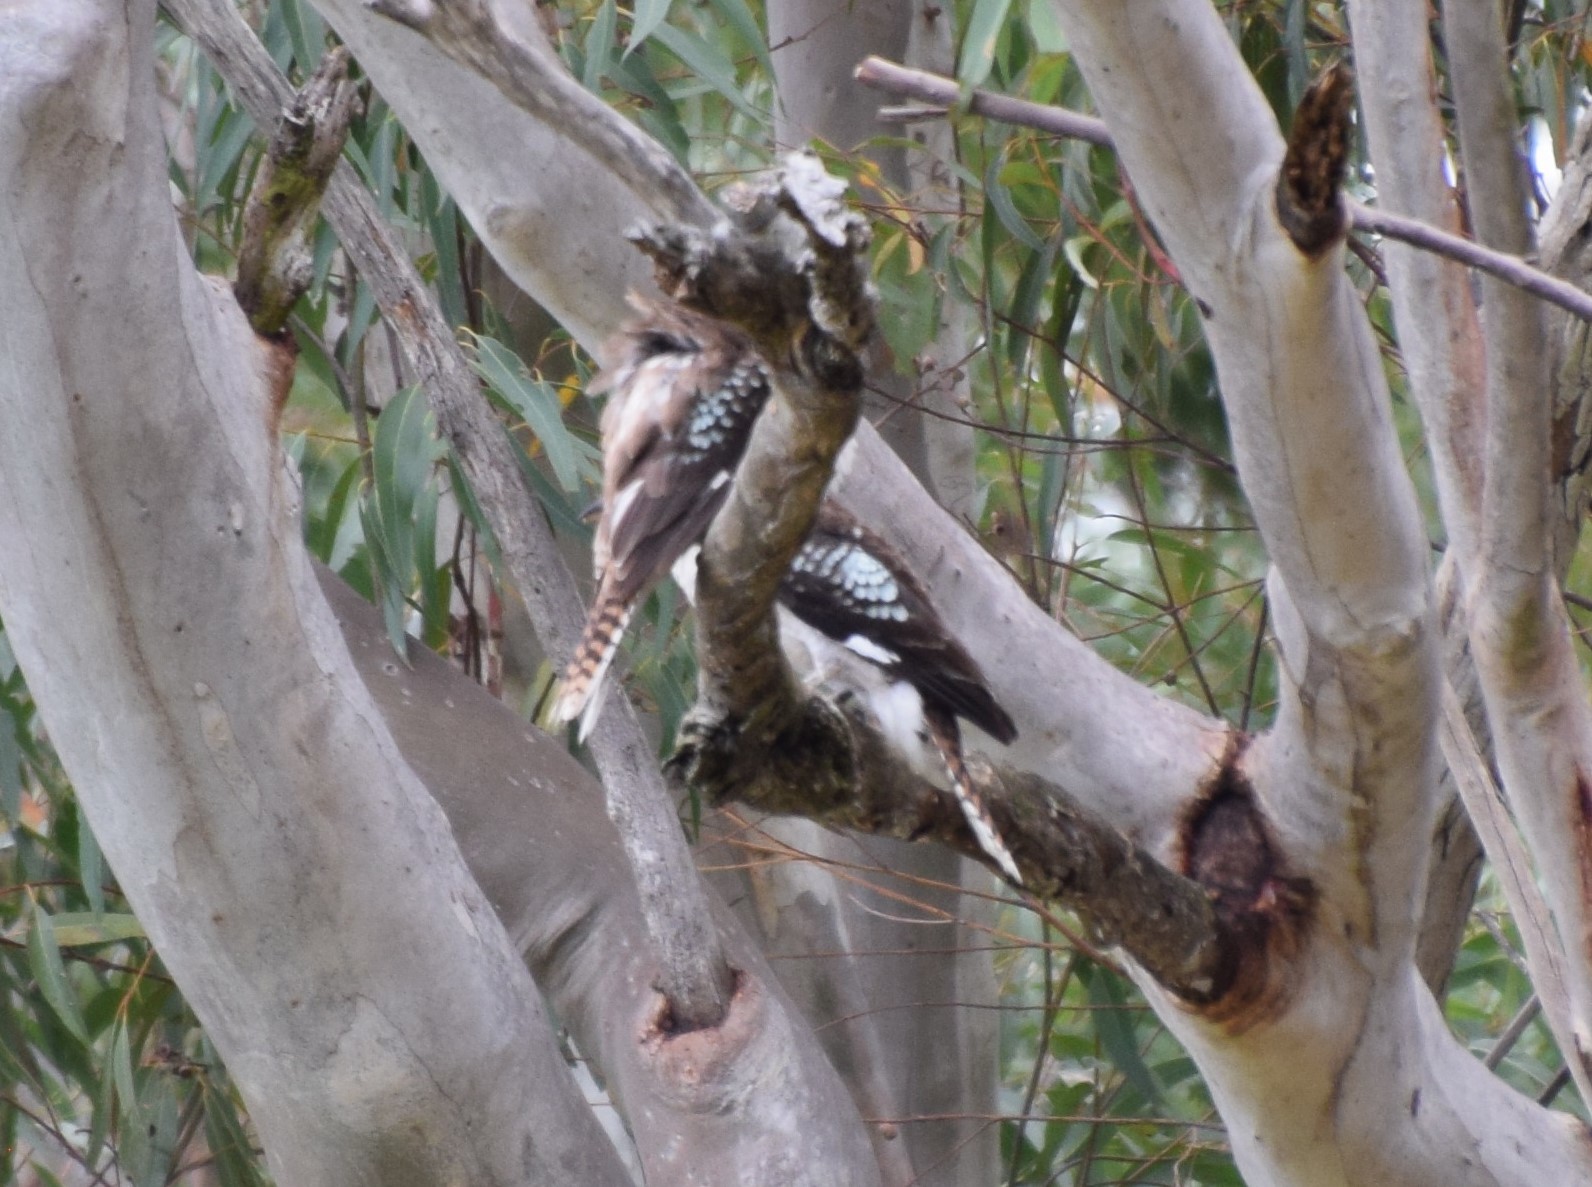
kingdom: Animalia
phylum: Chordata
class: Aves
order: Coraciiformes
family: Alcedinidae
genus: Dacelo
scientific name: Dacelo novaeguineae
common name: Laughing kookaburra
